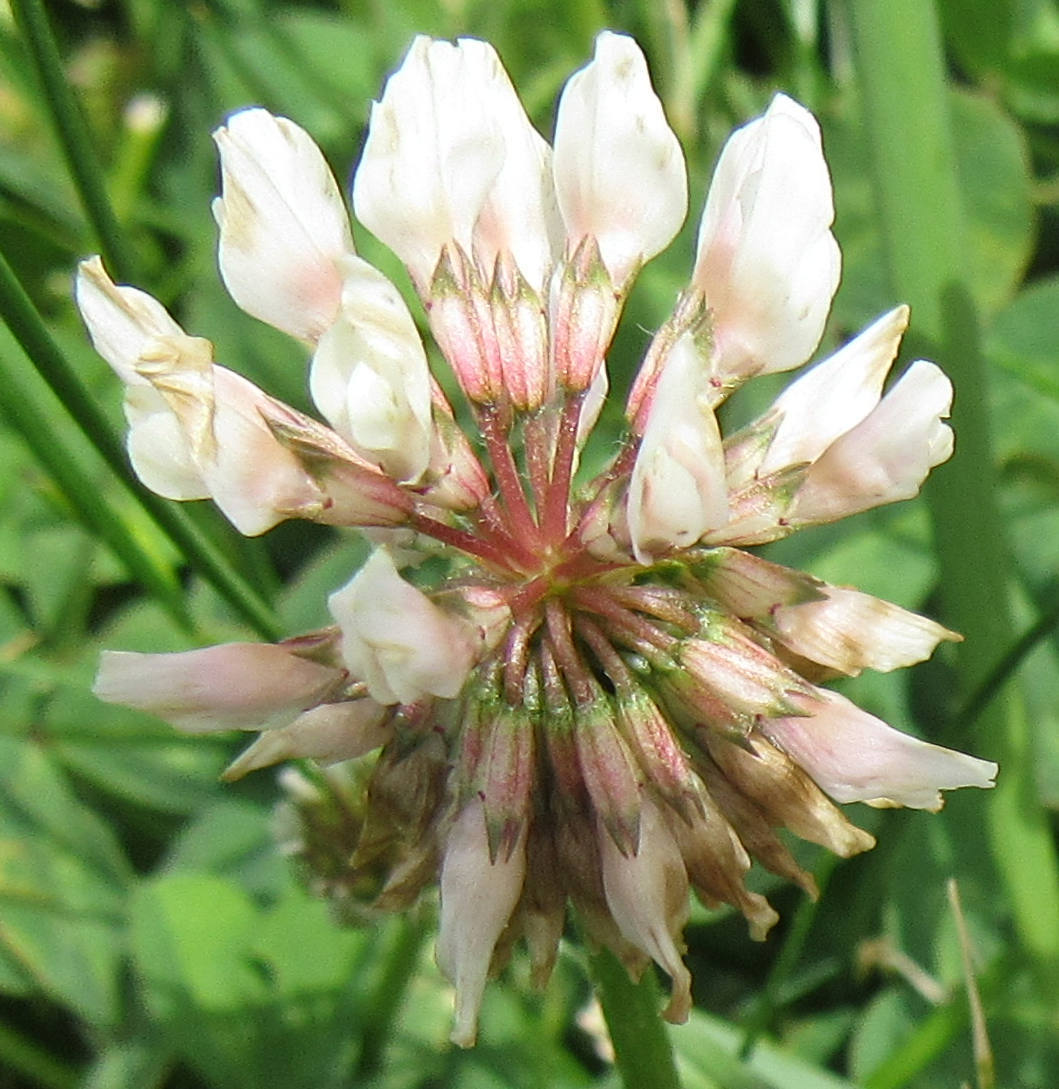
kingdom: Plantae
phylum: Tracheophyta
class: Magnoliopsida
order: Fabales
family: Fabaceae
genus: Trifolium
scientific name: Trifolium repens
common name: White clover
